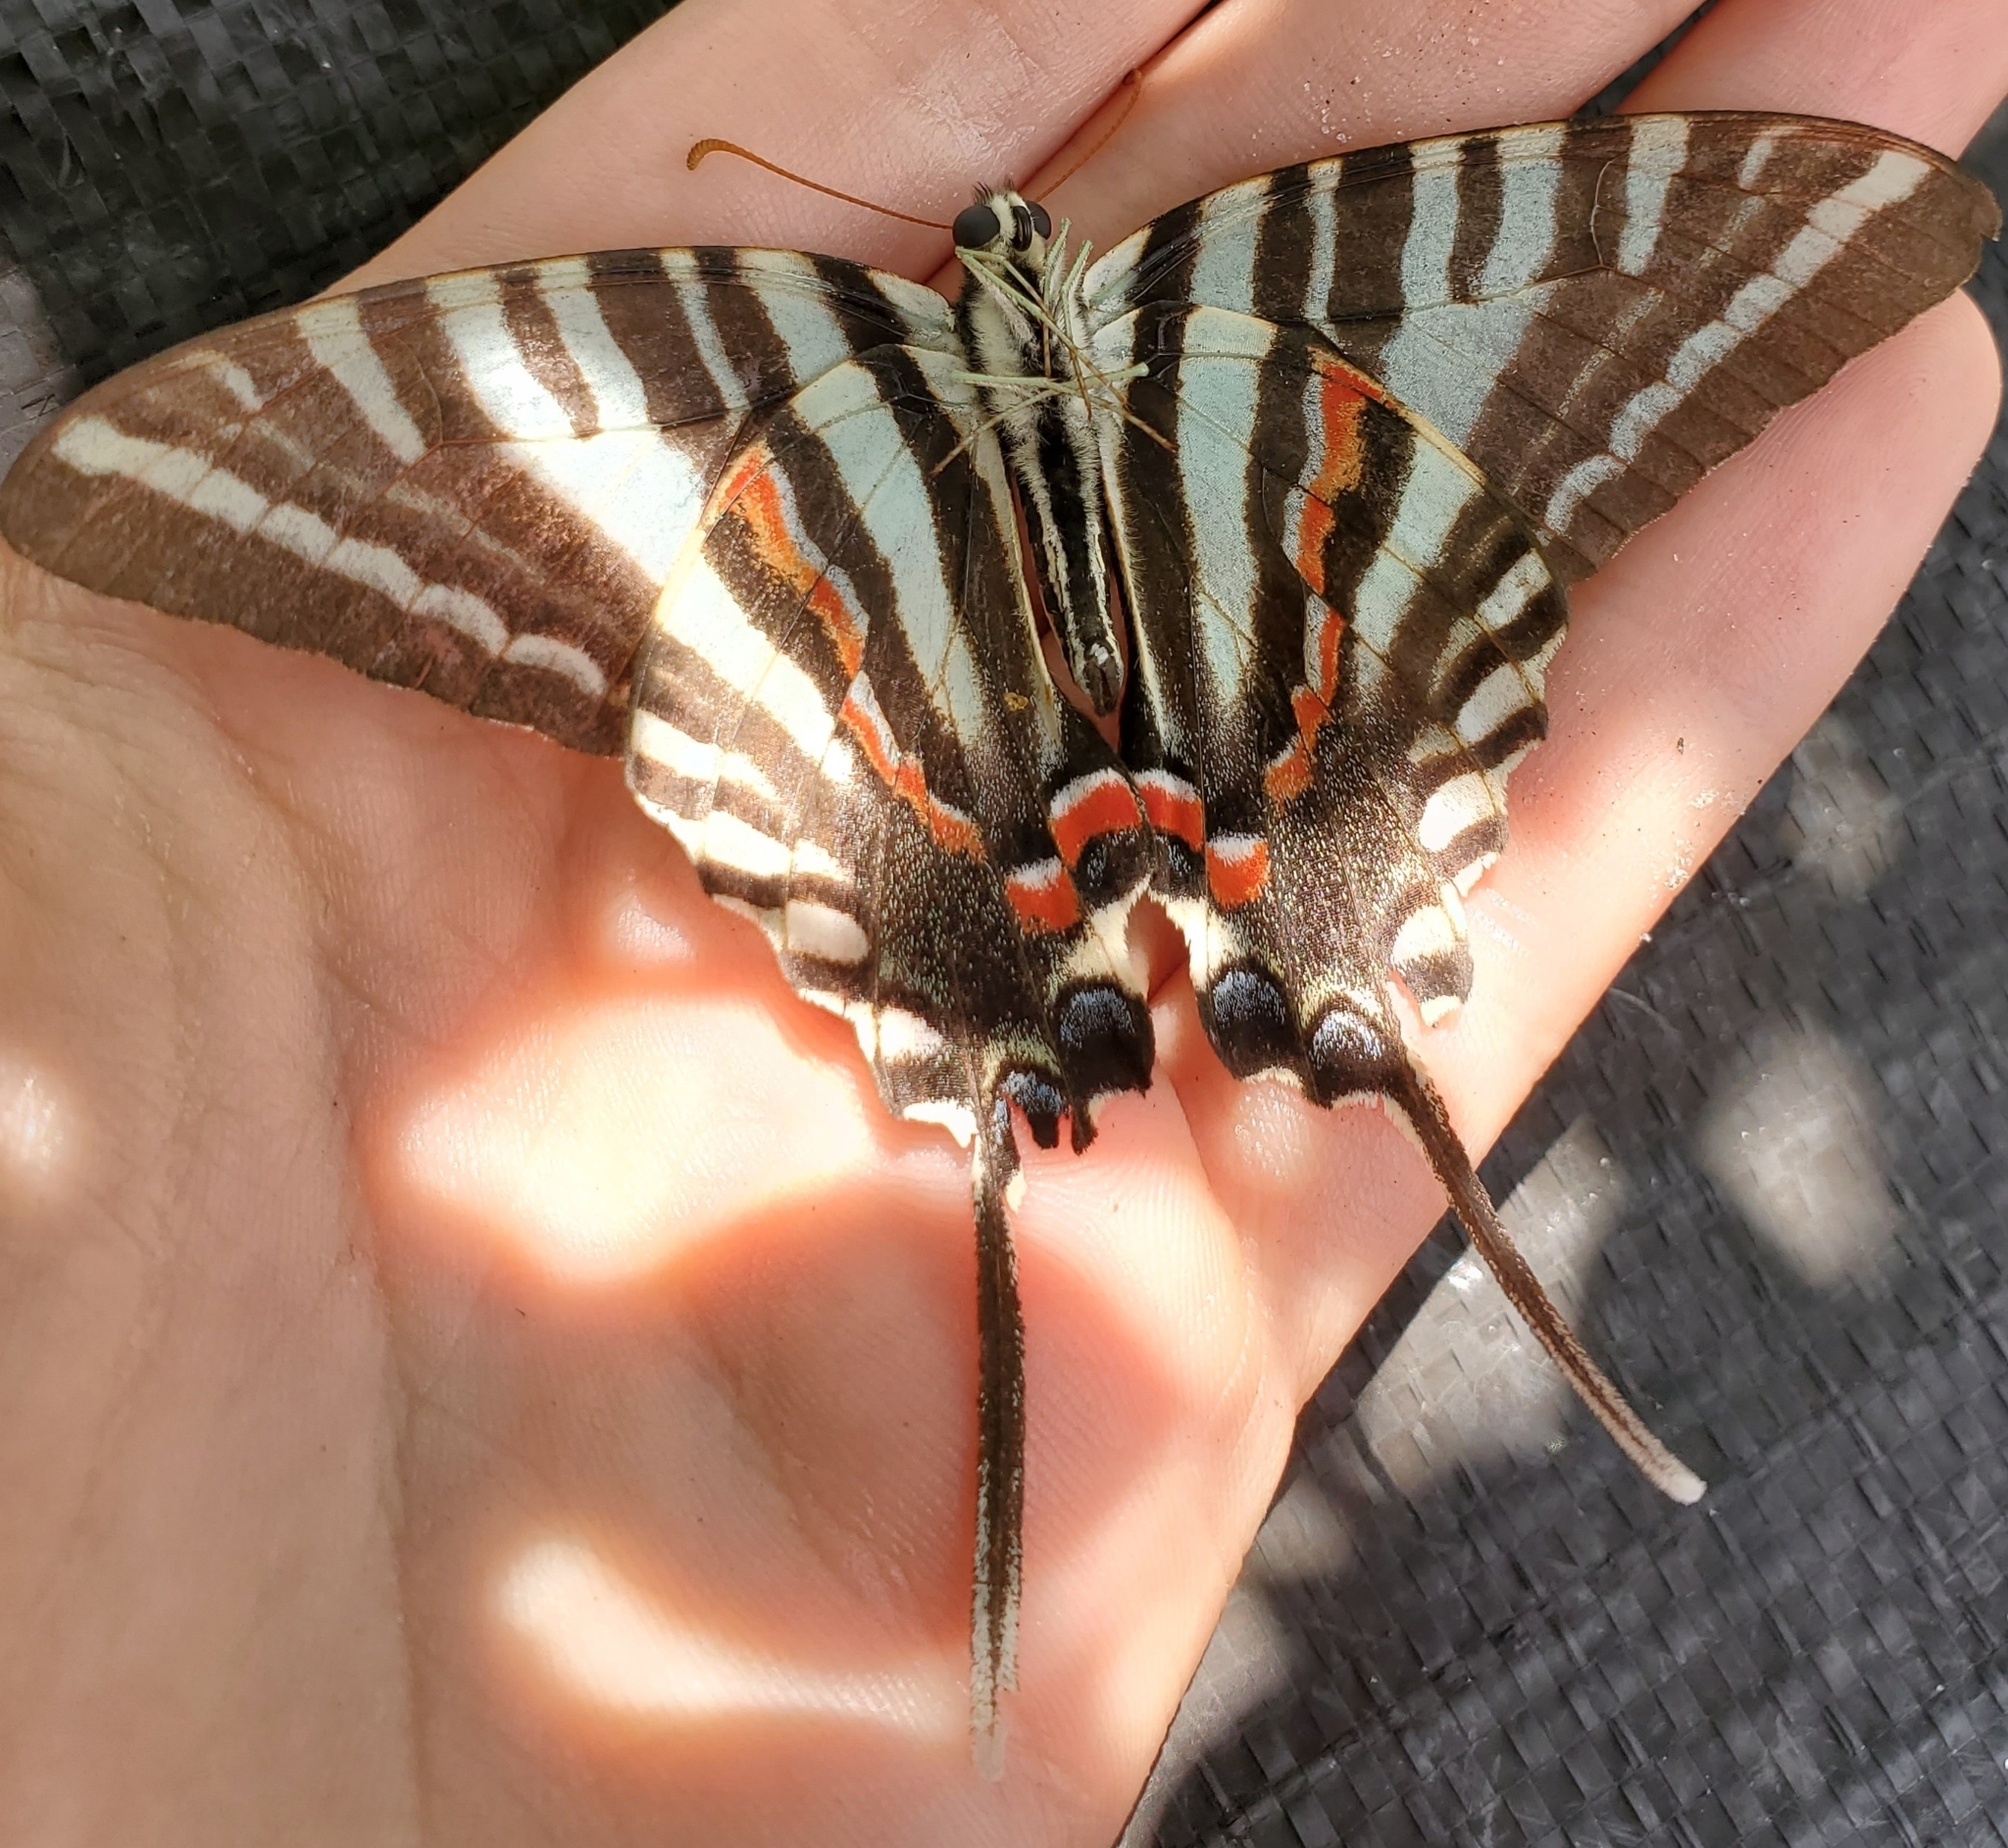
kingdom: Animalia
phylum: Arthropoda
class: Insecta
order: Lepidoptera
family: Papilionidae
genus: Protographium
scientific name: Protographium marcellus
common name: Zebra swallowtail
